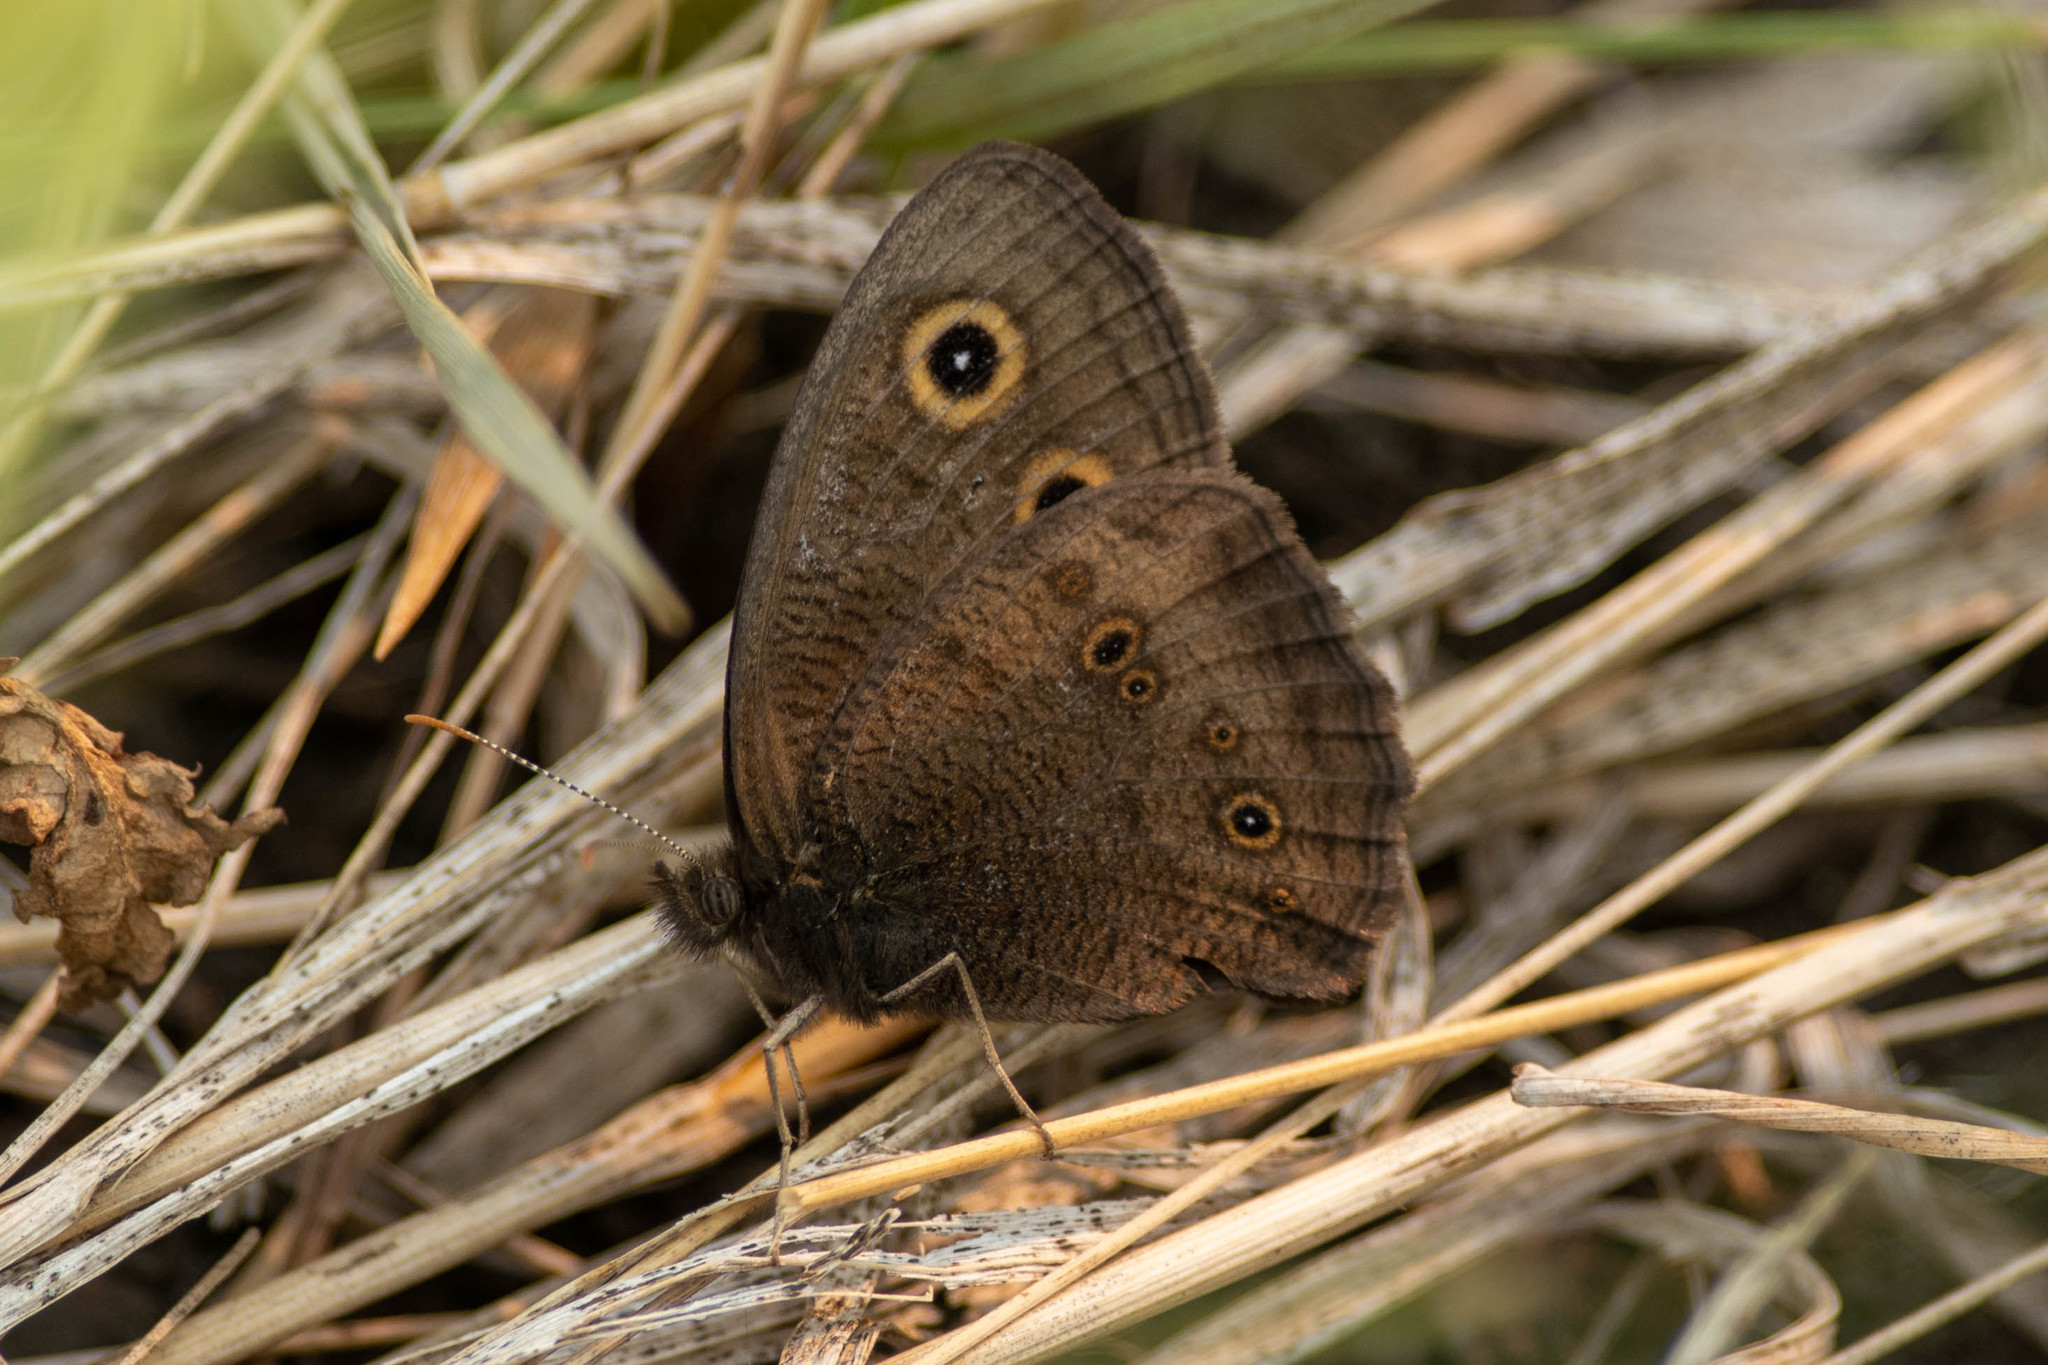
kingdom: Animalia
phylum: Arthropoda
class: Insecta
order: Lepidoptera
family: Nymphalidae
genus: Cercyonis
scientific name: Cercyonis pegala
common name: Common wood-nymph
